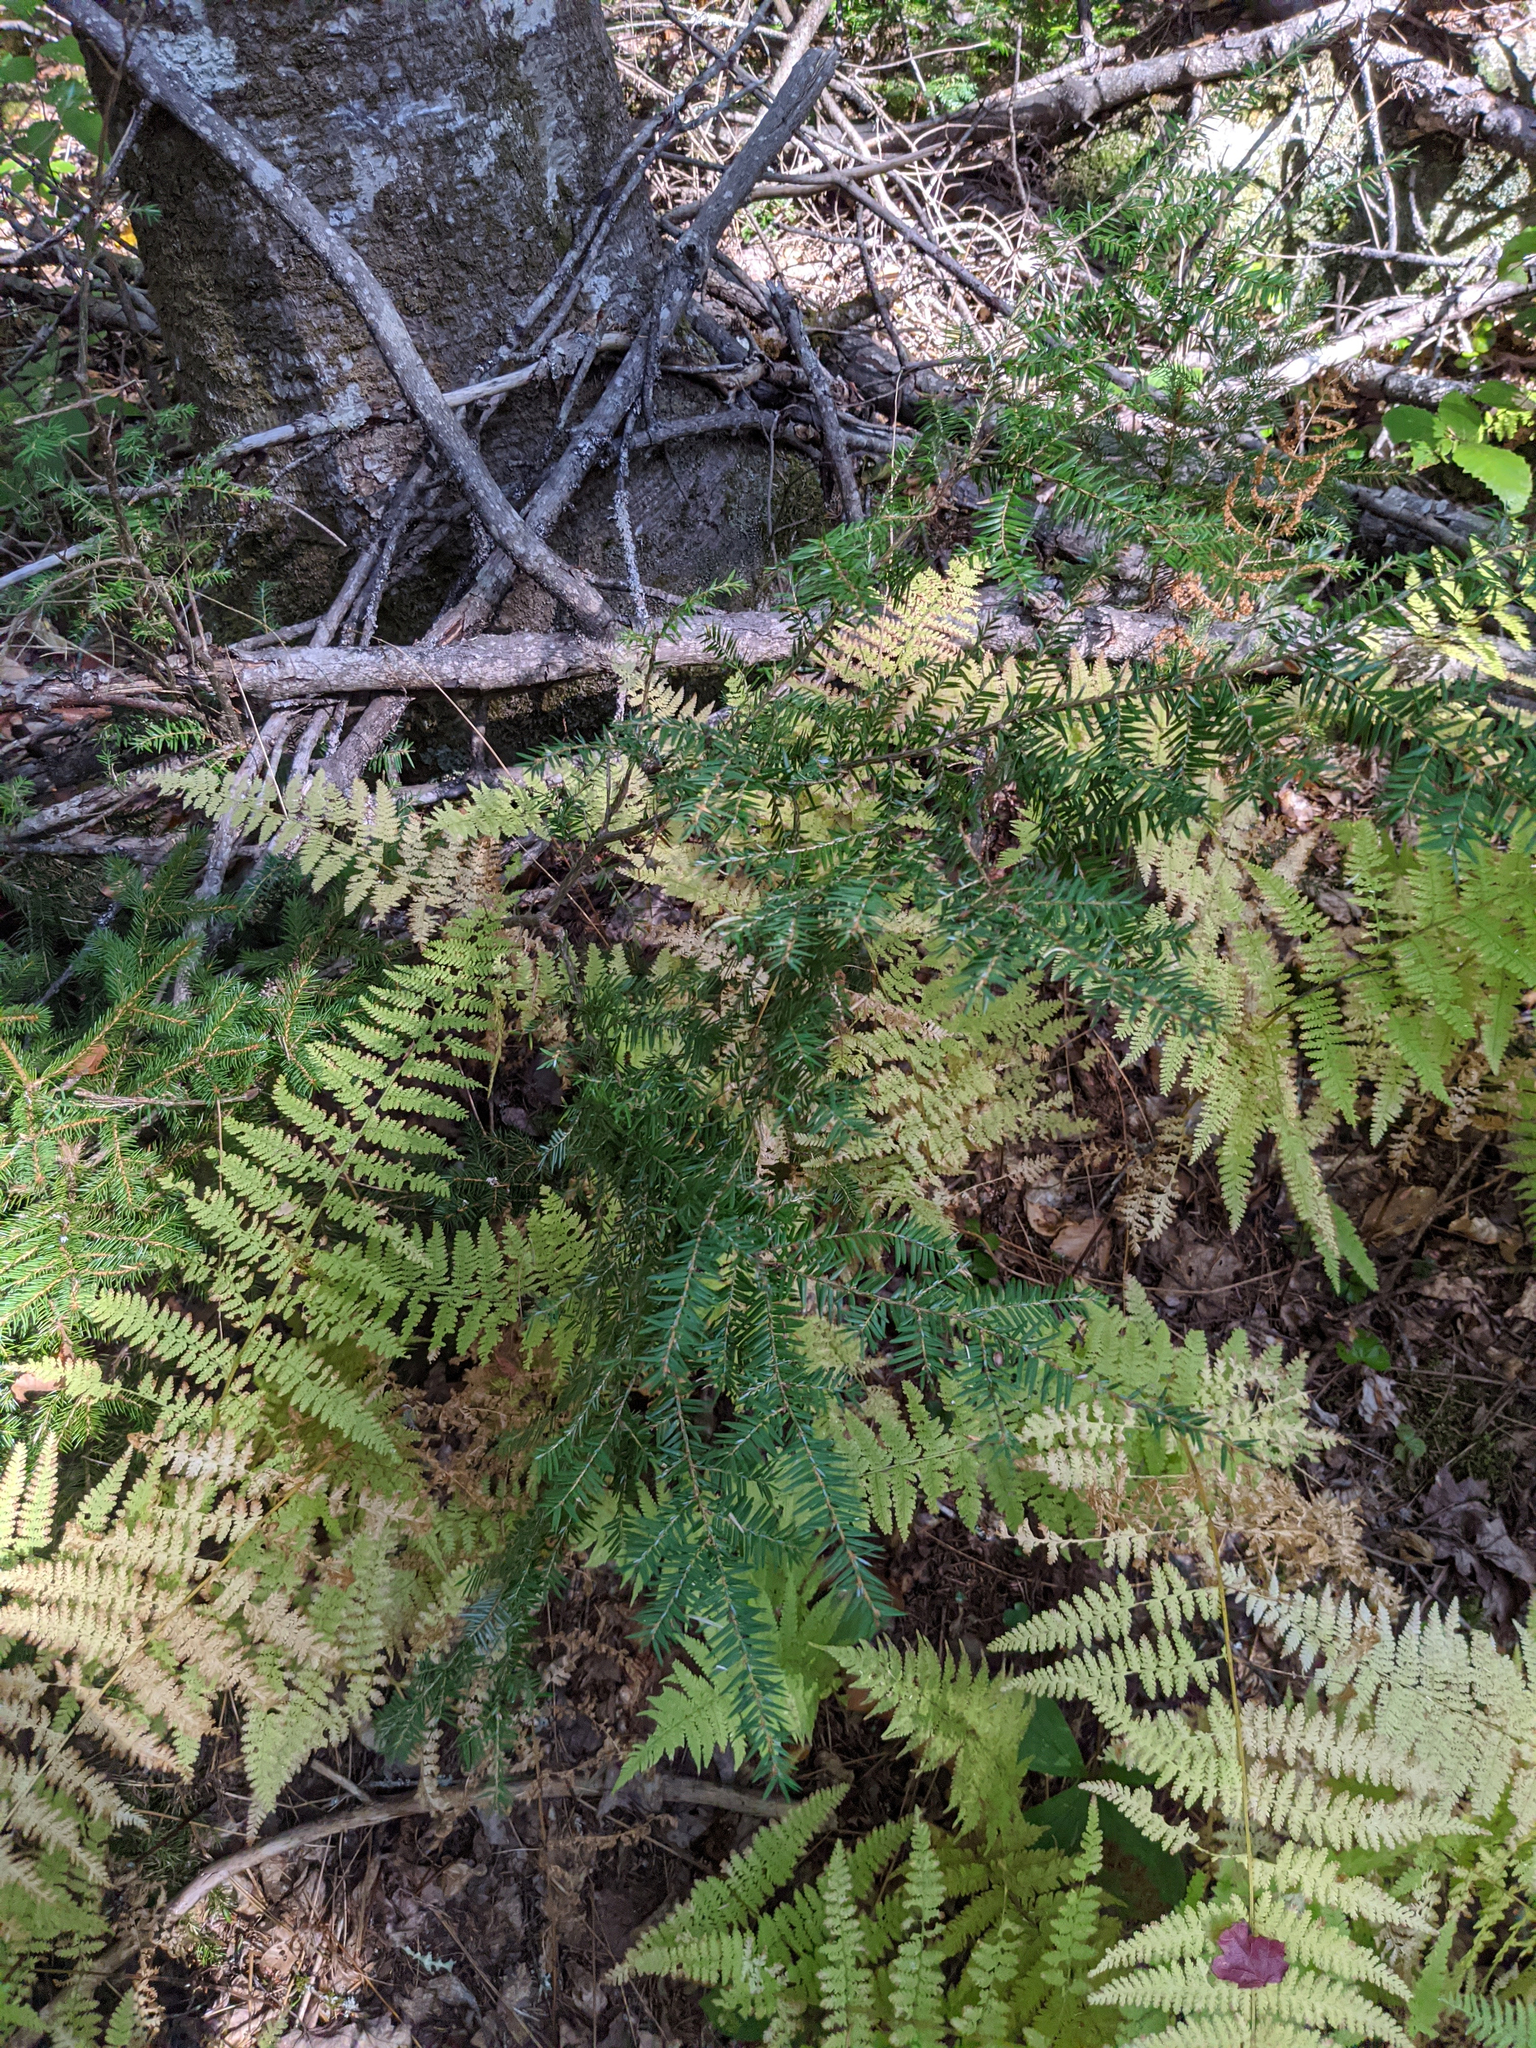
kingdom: Plantae
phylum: Tracheophyta
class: Pinopsida
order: Pinales
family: Pinaceae
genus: Tsuga
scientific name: Tsuga canadensis
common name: Eastern hemlock
